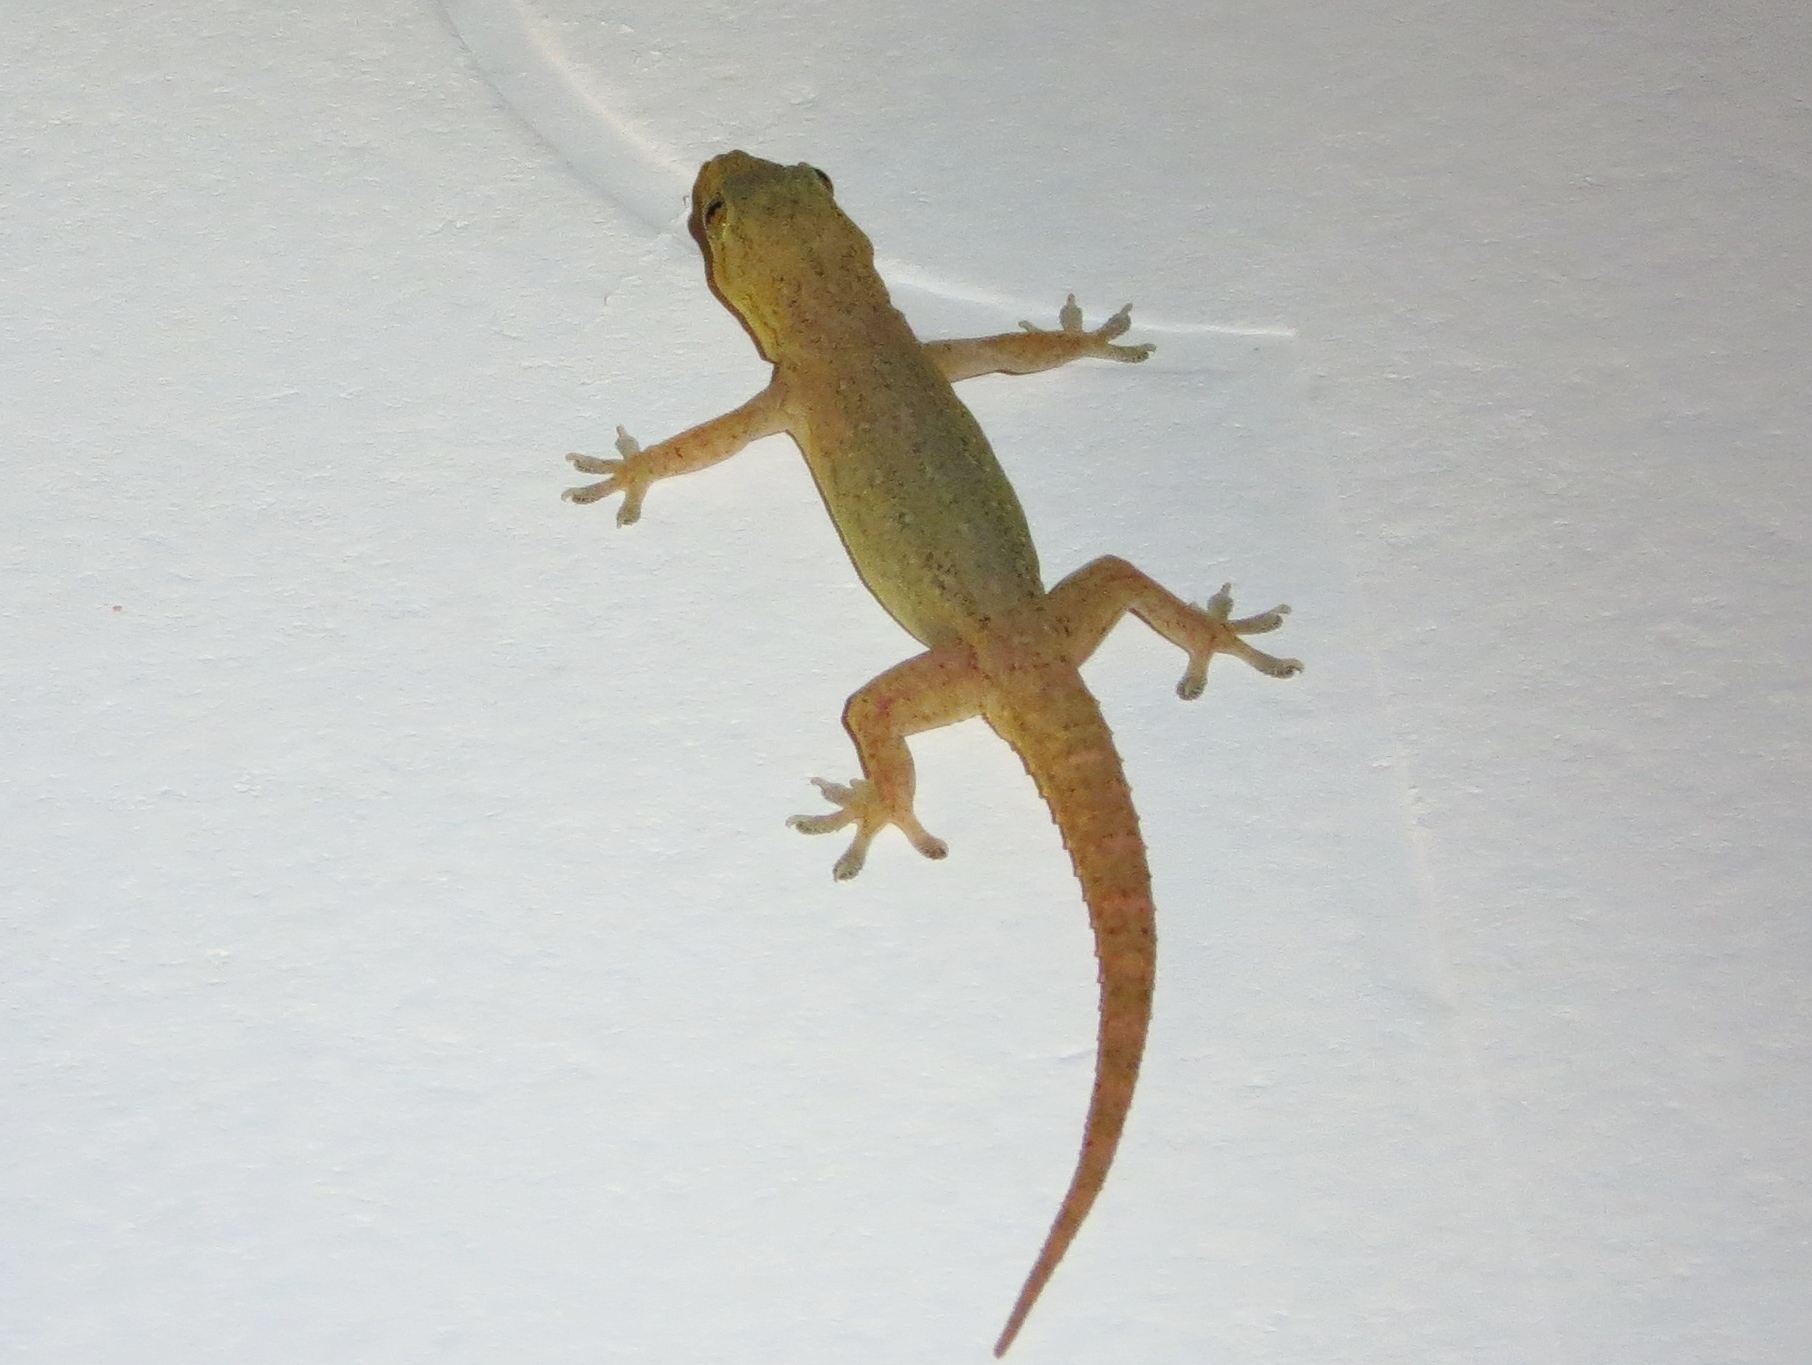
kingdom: Animalia
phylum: Chordata
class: Squamata
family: Gekkonidae
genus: Hemidactylus
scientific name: Hemidactylus frenatus
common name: Common house gecko
